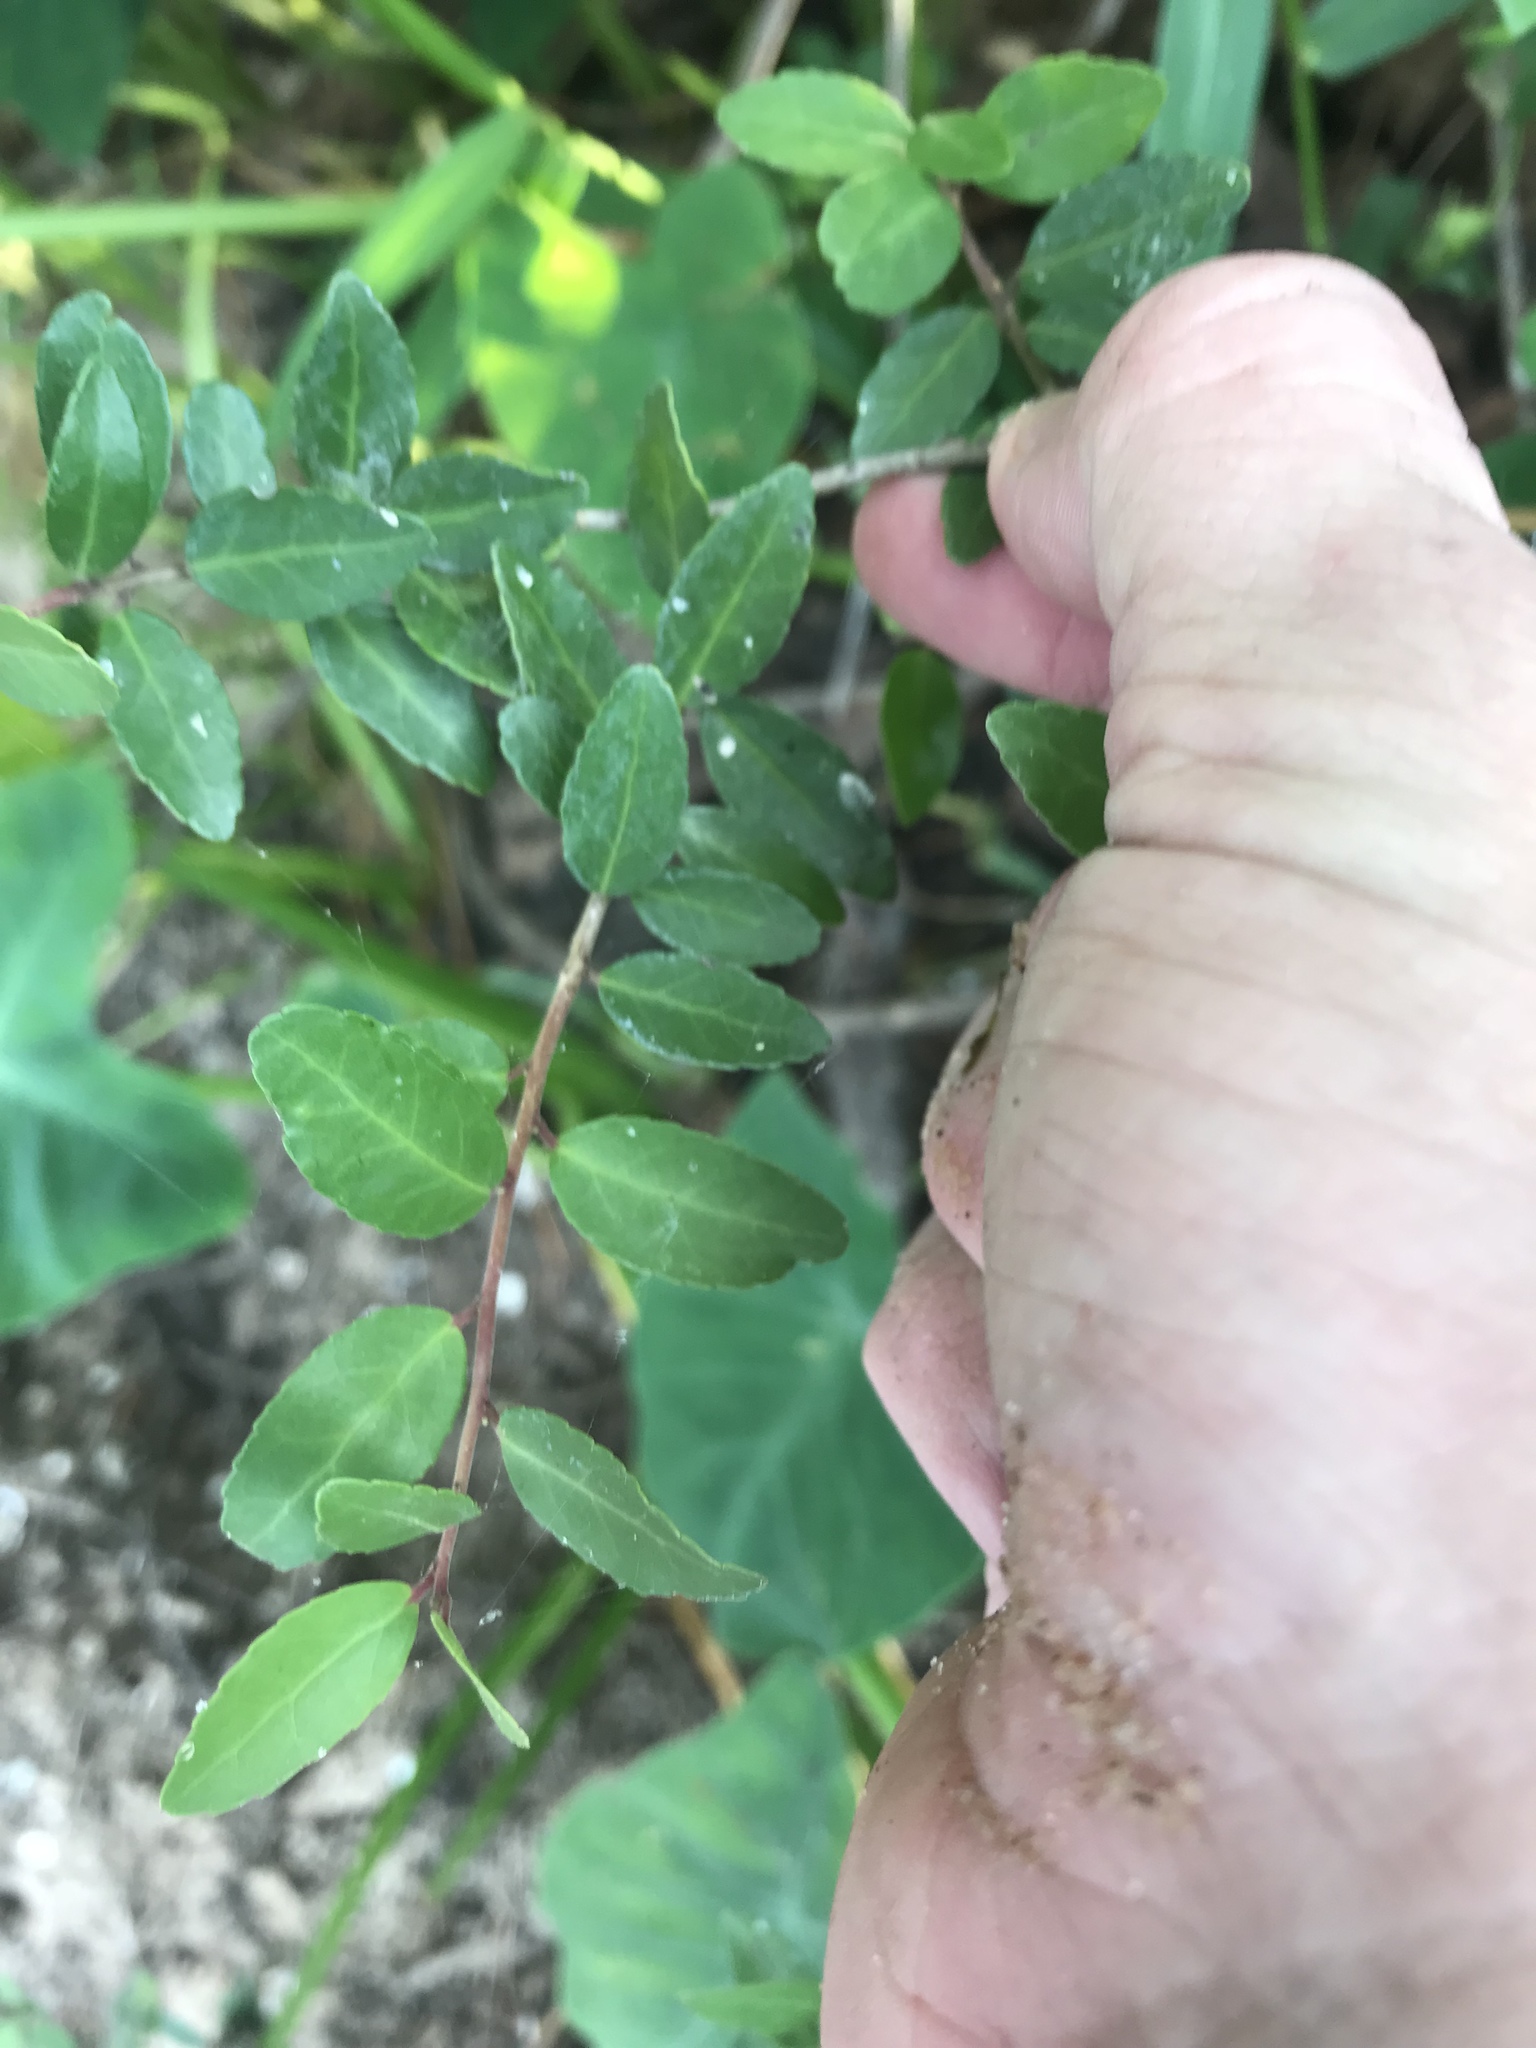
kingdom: Plantae
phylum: Tracheophyta
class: Magnoliopsida
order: Aquifoliales
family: Aquifoliaceae
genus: Ilex
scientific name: Ilex vomitoria
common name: Yaupon holly
